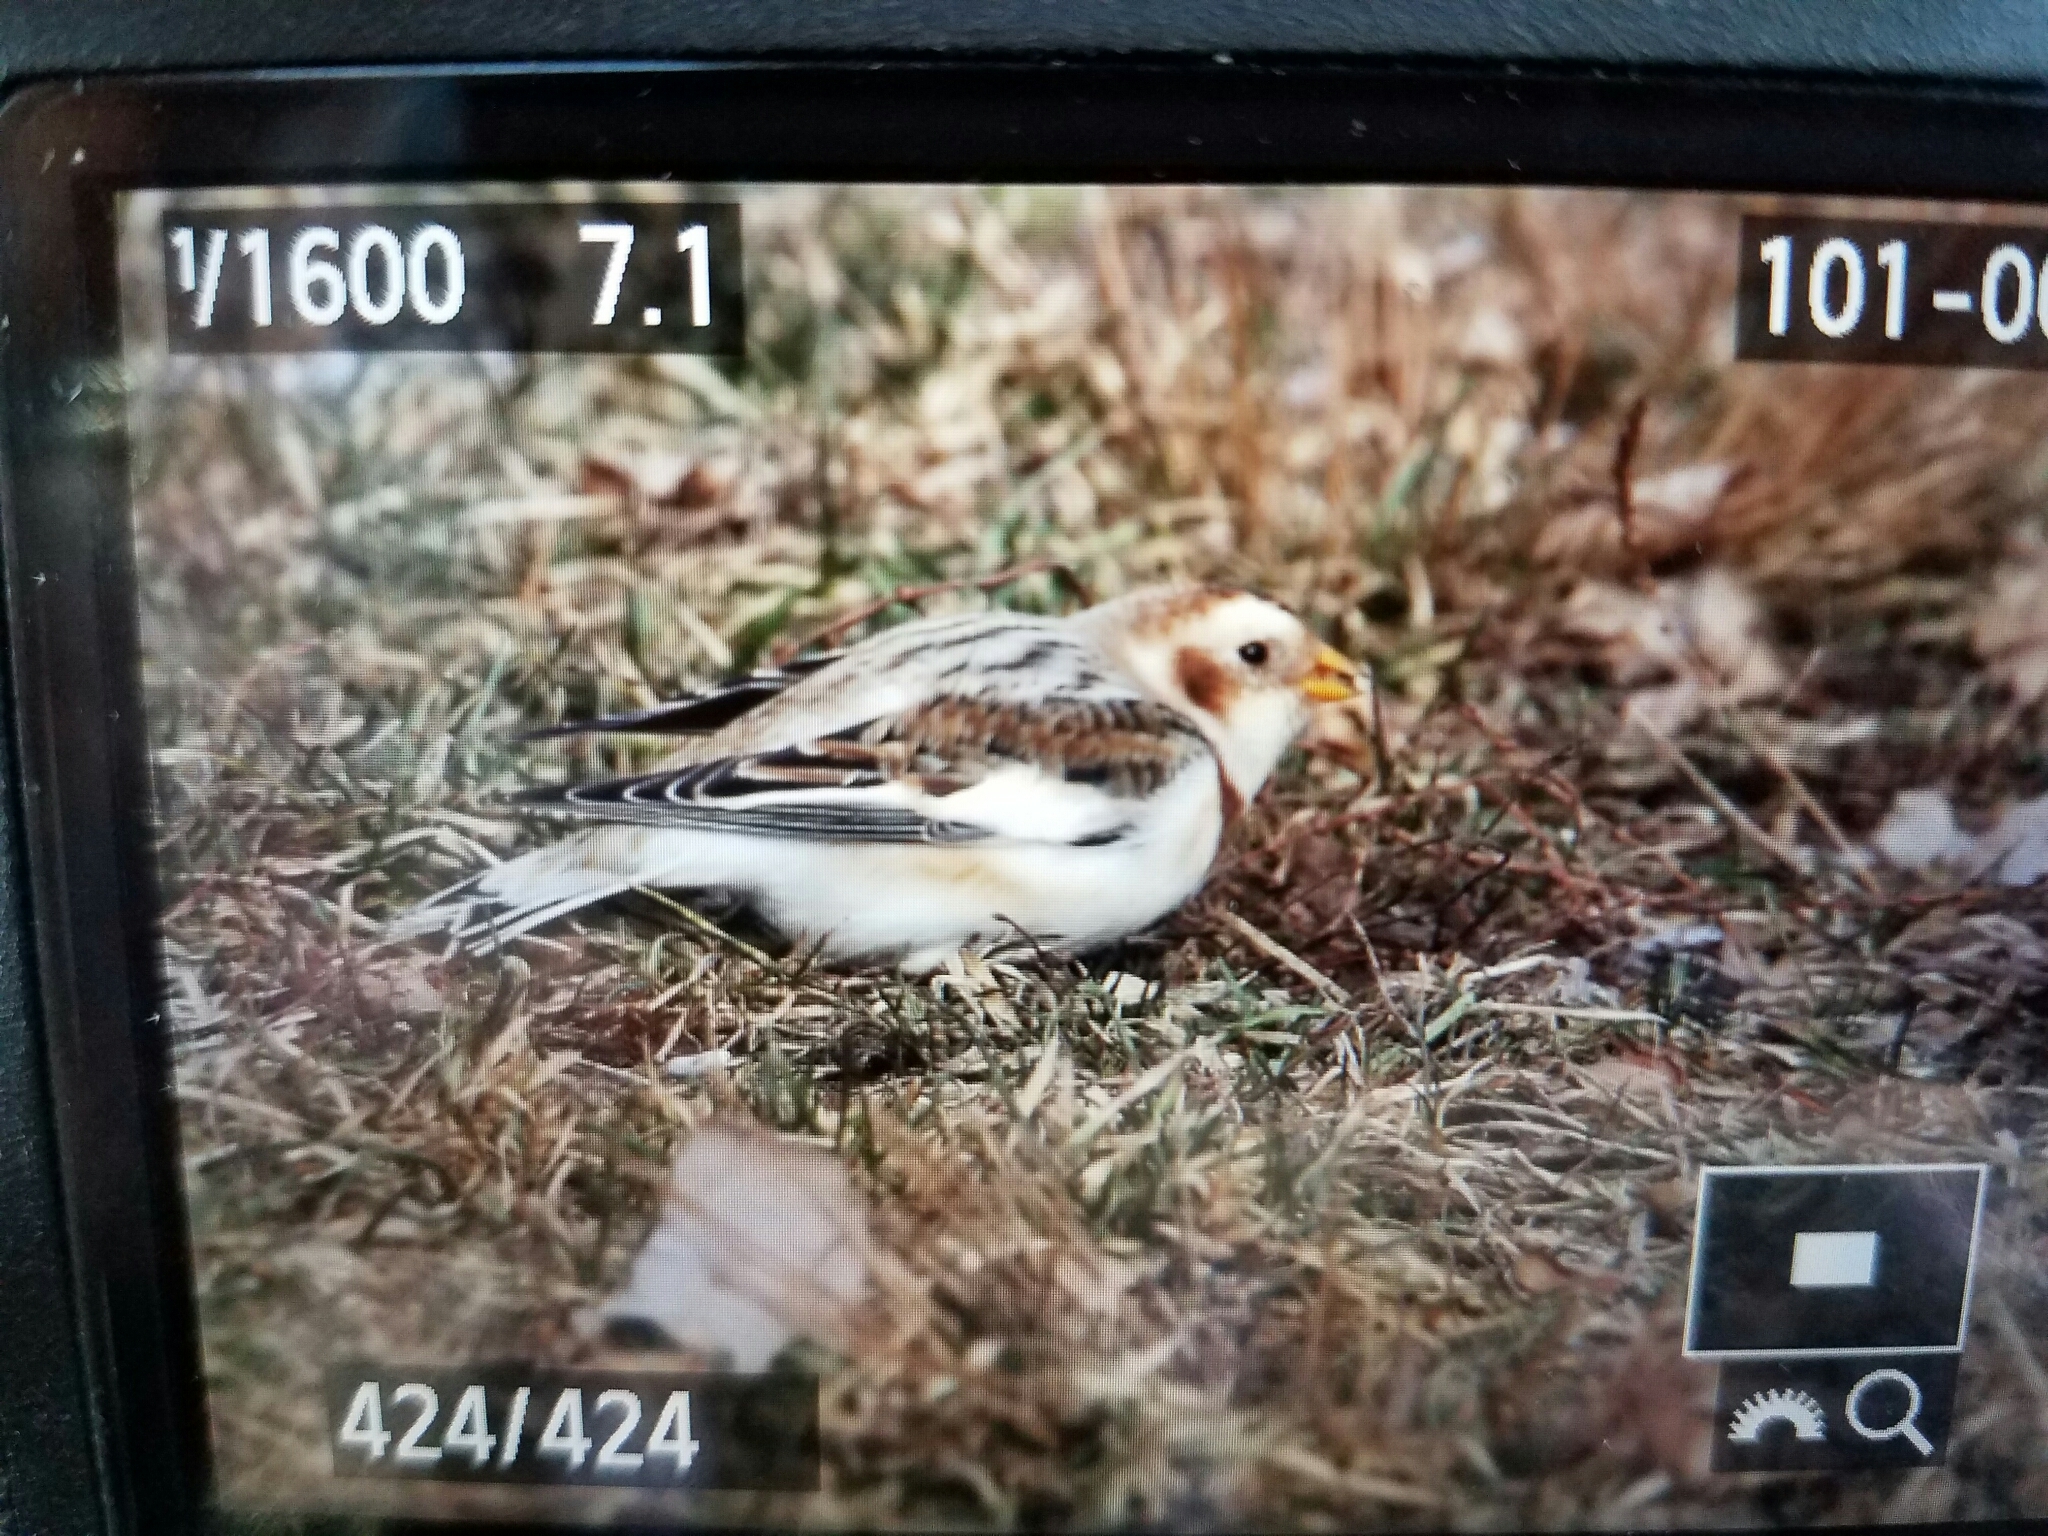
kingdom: Animalia
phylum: Chordata
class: Aves
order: Passeriformes
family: Calcariidae
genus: Plectrophenax
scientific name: Plectrophenax nivalis
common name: Snow bunting
